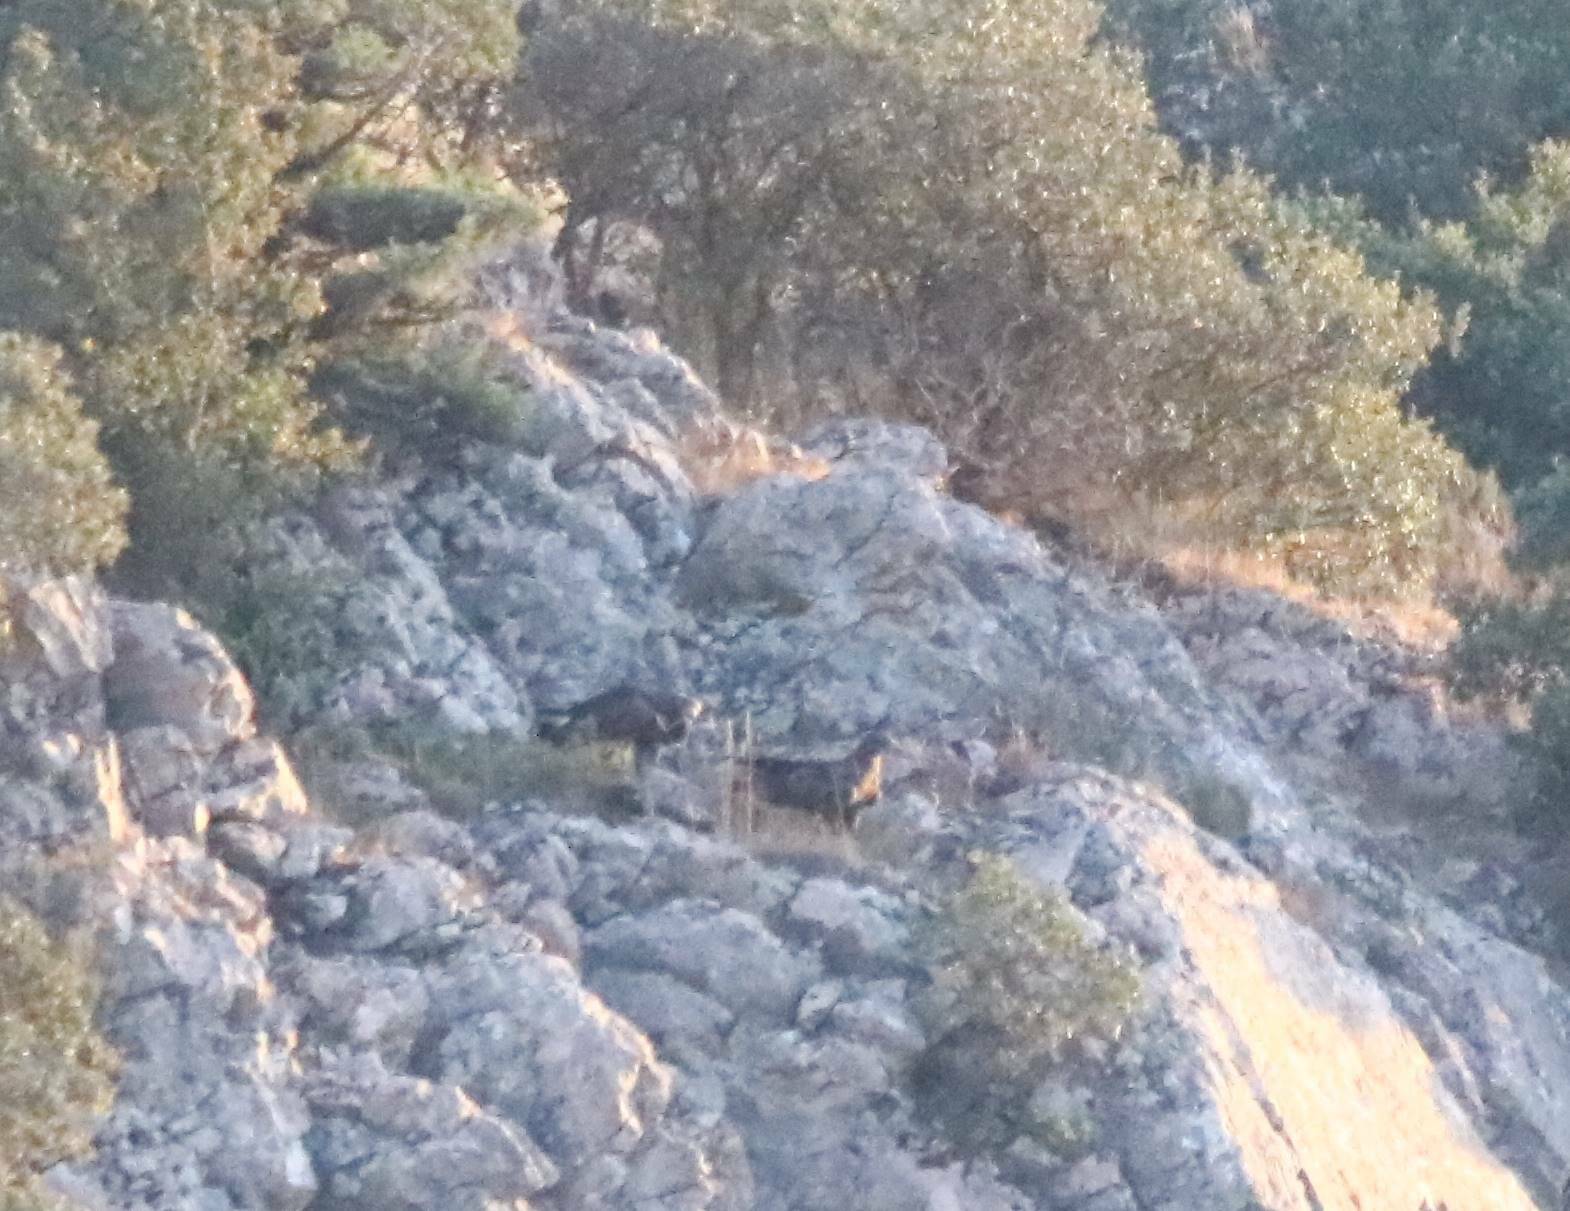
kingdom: Animalia
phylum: Chordata
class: Aves
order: Accipitriformes
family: Accipitridae
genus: Aquila
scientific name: Aquila chrysaetos
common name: Golden eagle
